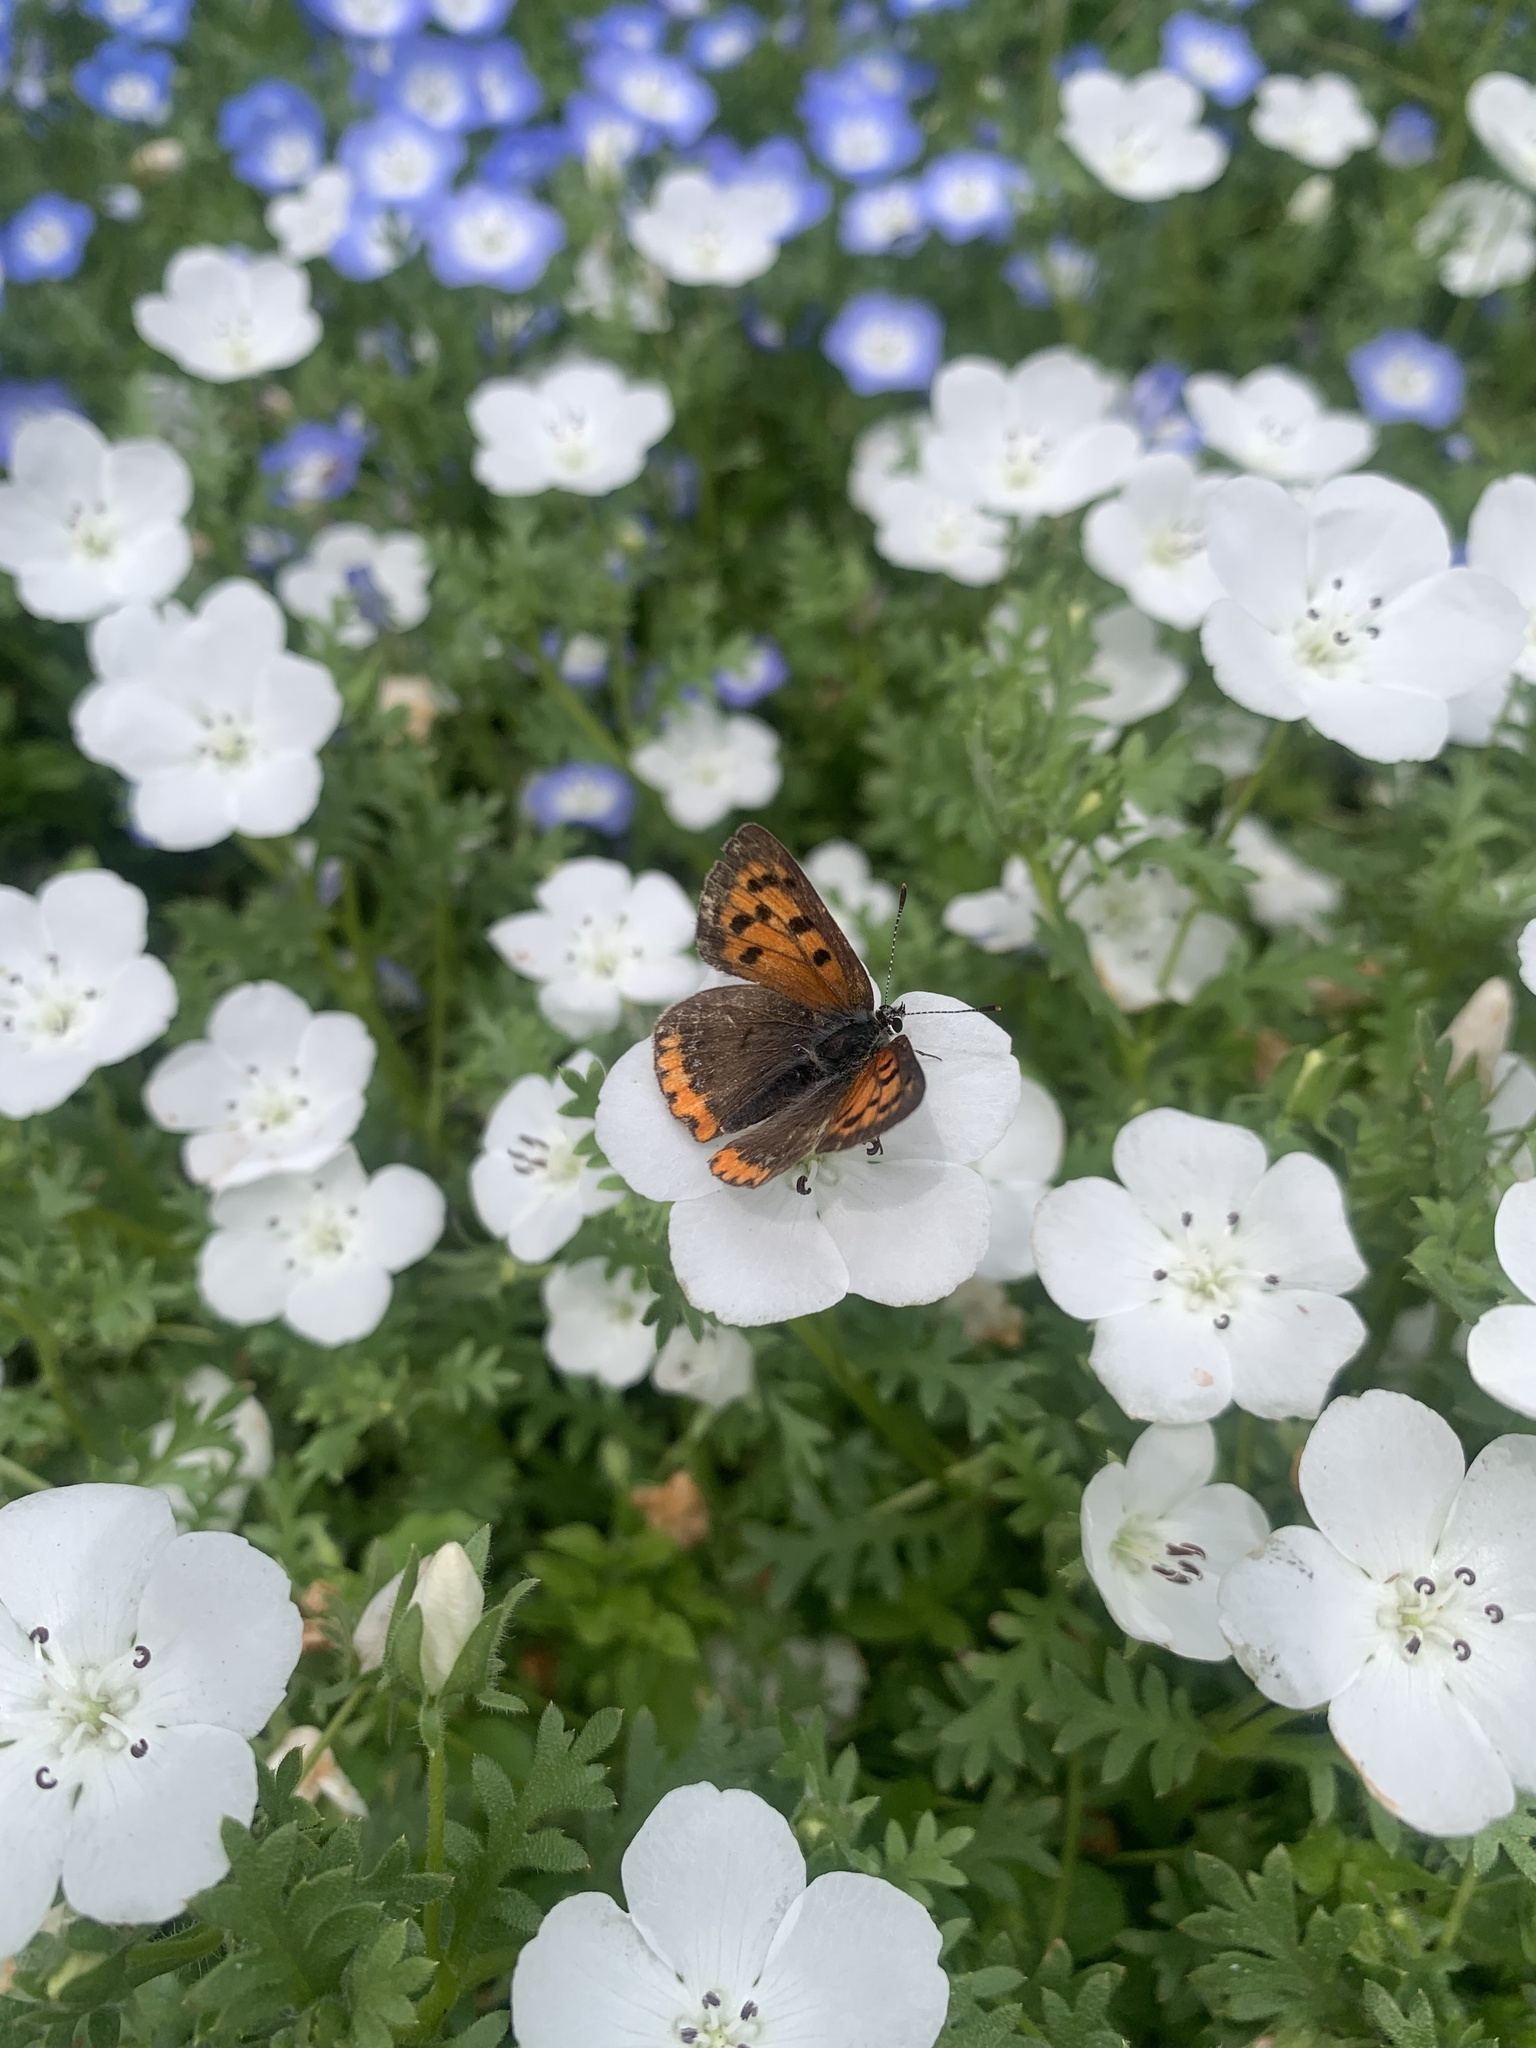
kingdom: Animalia
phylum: Arthropoda
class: Insecta
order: Lepidoptera
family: Lycaenidae
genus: Lycaena
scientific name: Lycaena phlaeas
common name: Small copper
